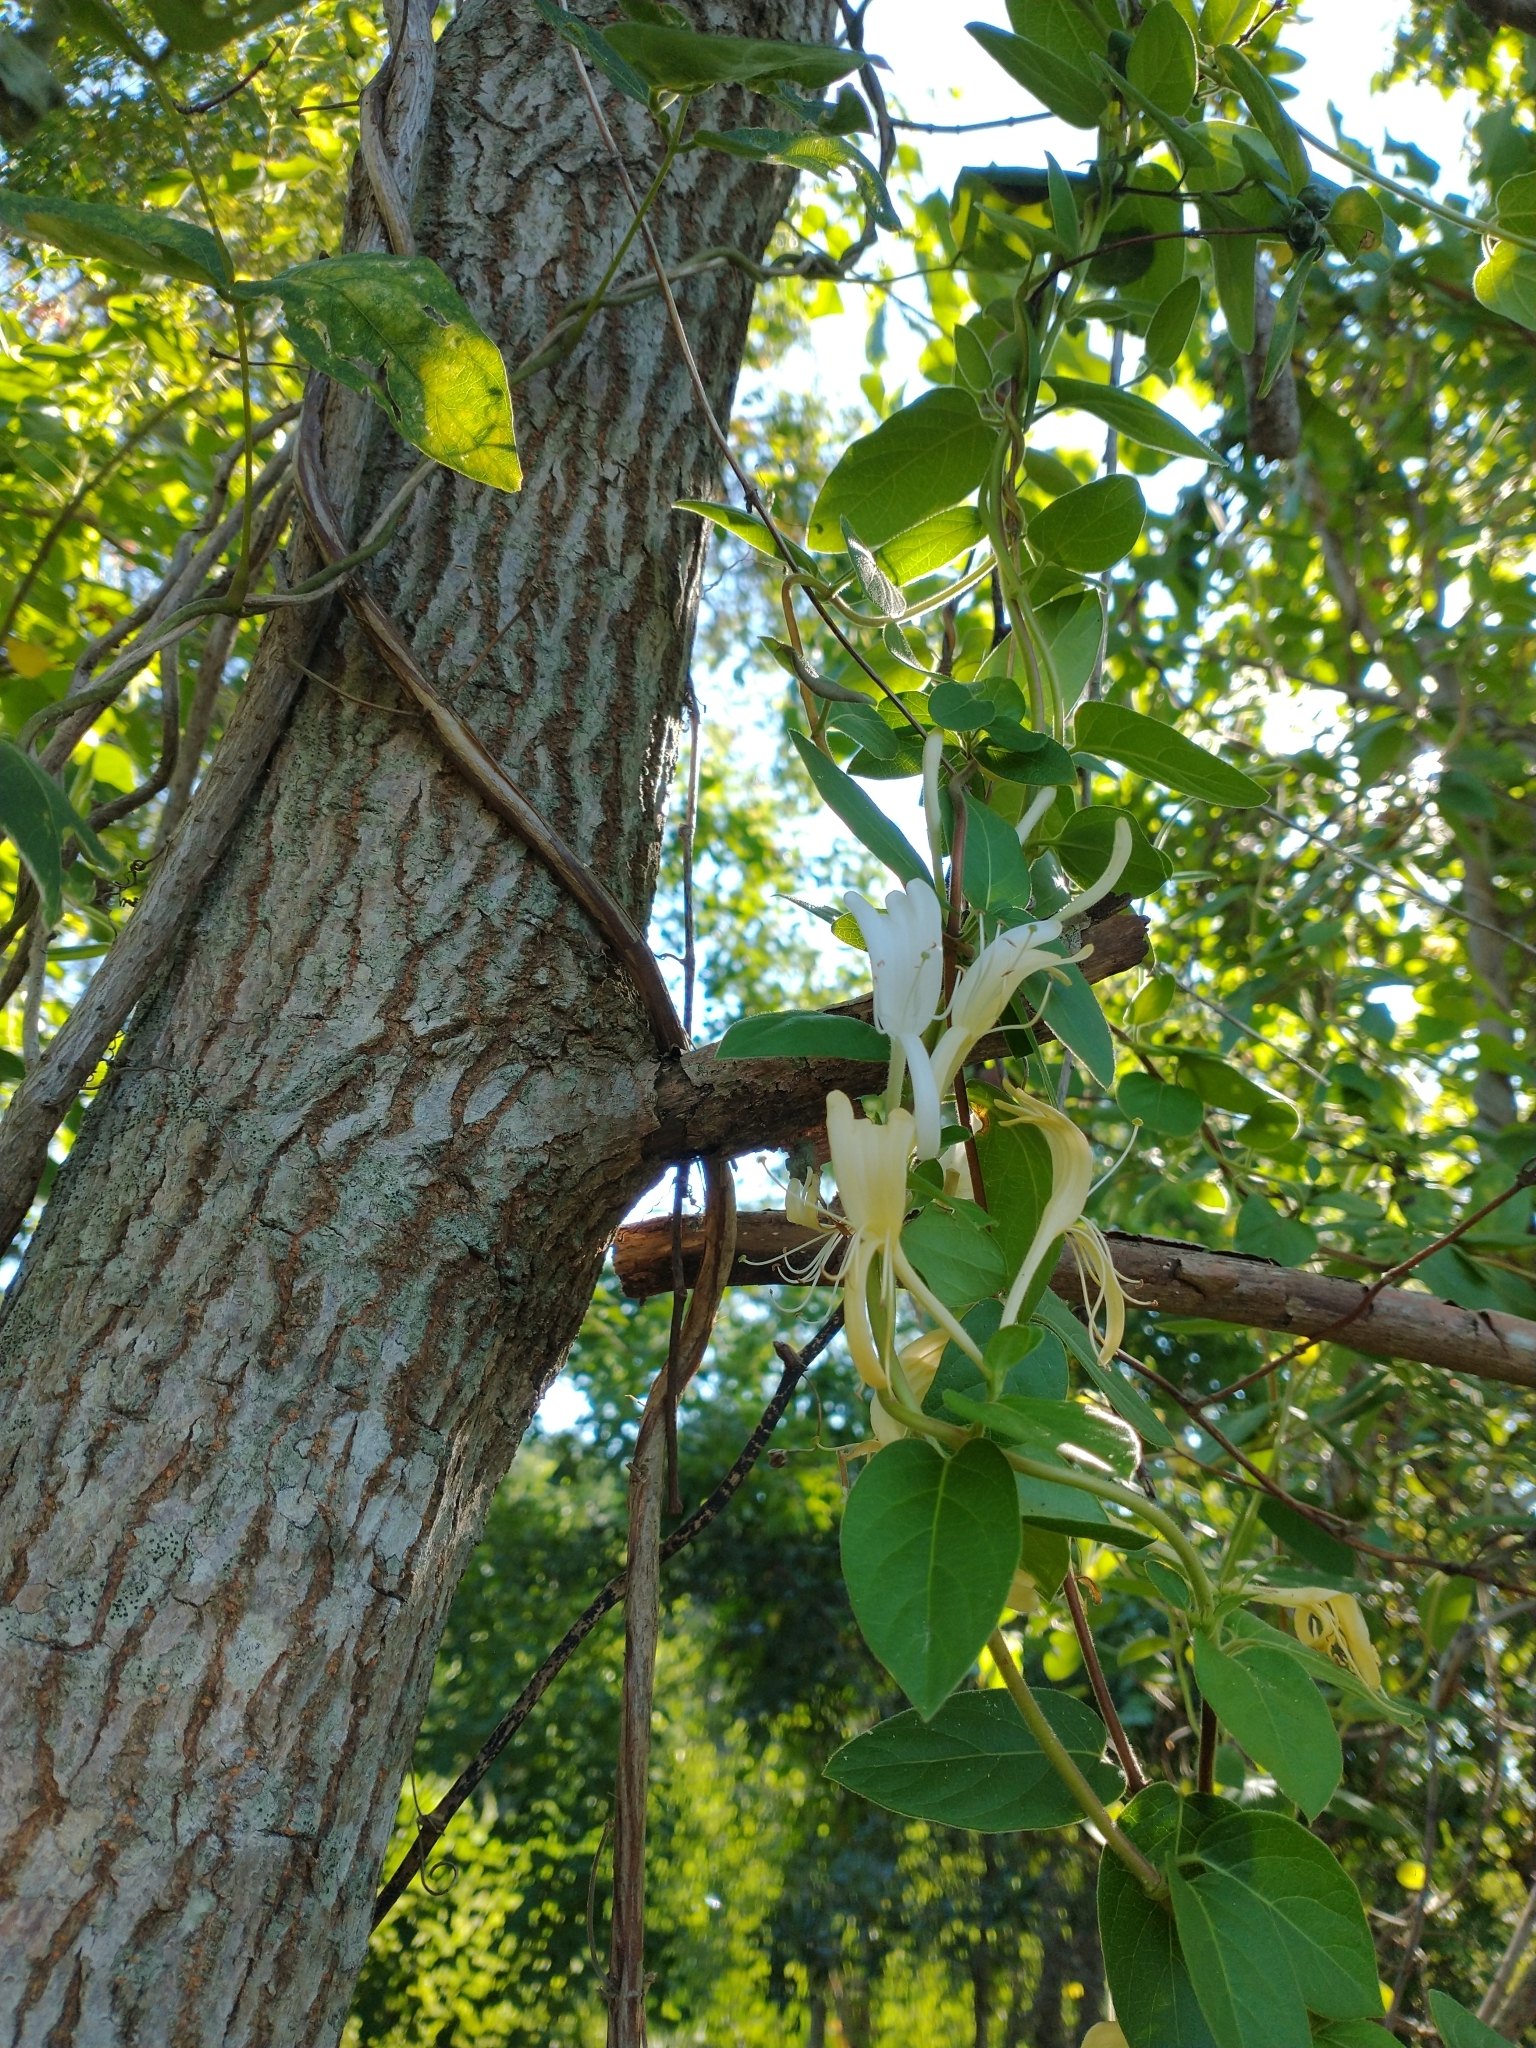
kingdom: Plantae
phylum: Tracheophyta
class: Magnoliopsida
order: Dipsacales
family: Caprifoliaceae
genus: Lonicera
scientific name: Lonicera japonica
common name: Japanese honeysuckle
